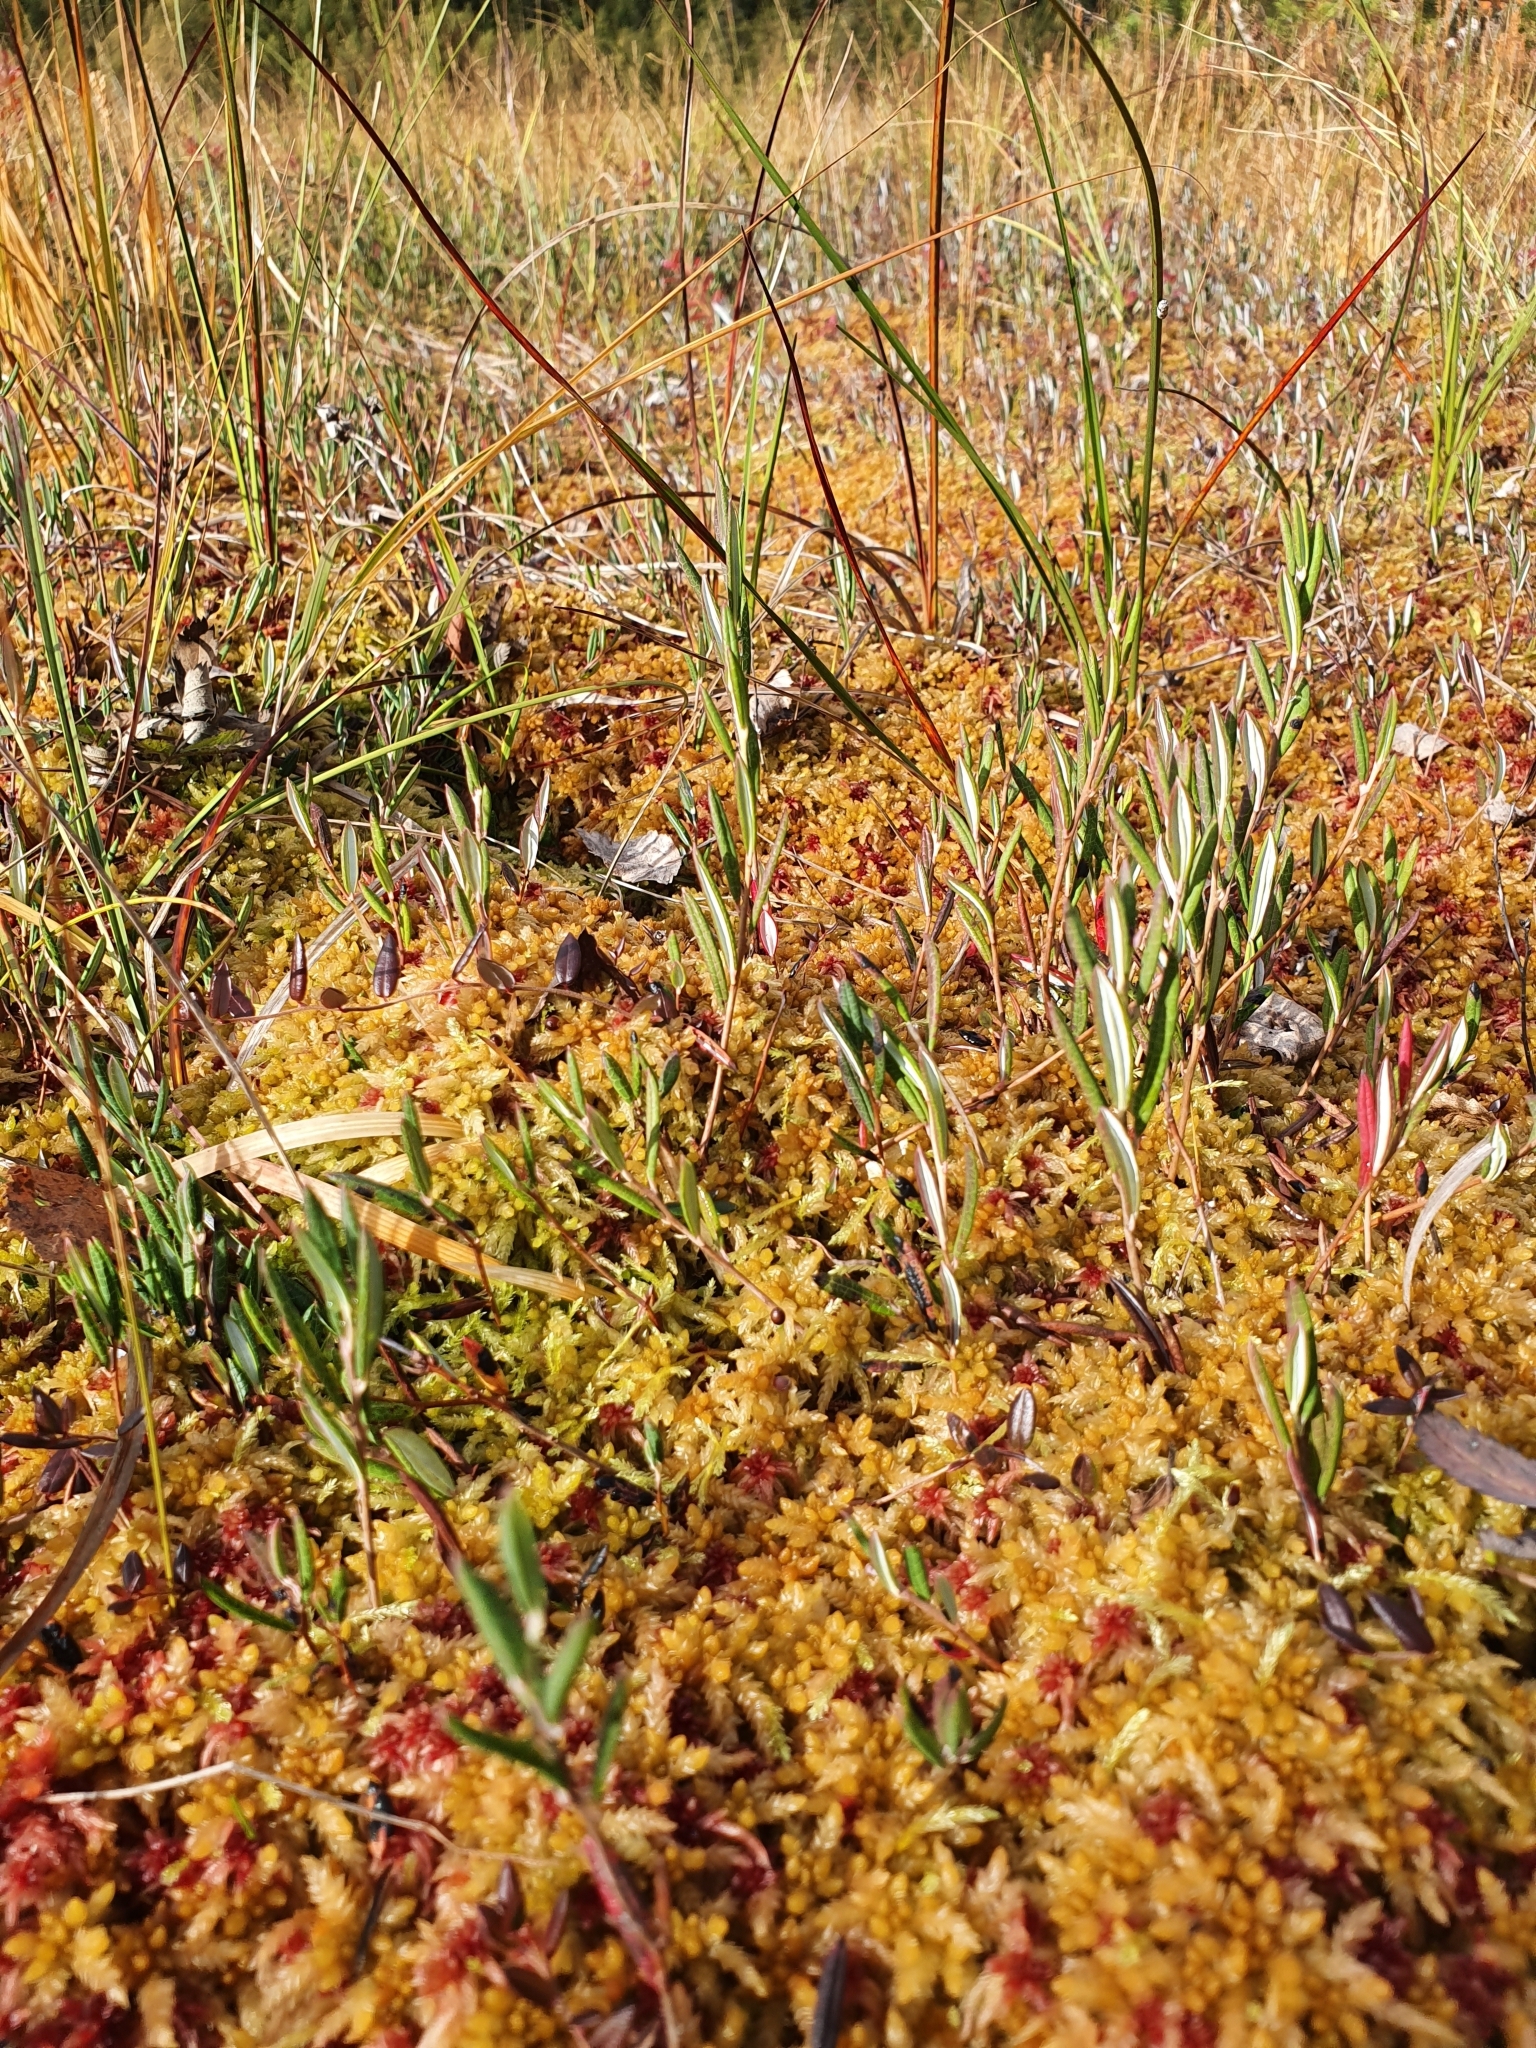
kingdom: Plantae
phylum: Tracheophyta
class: Magnoliopsida
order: Ericales
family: Ericaceae
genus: Andromeda
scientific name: Andromeda polifolia
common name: Bog-rosemary
